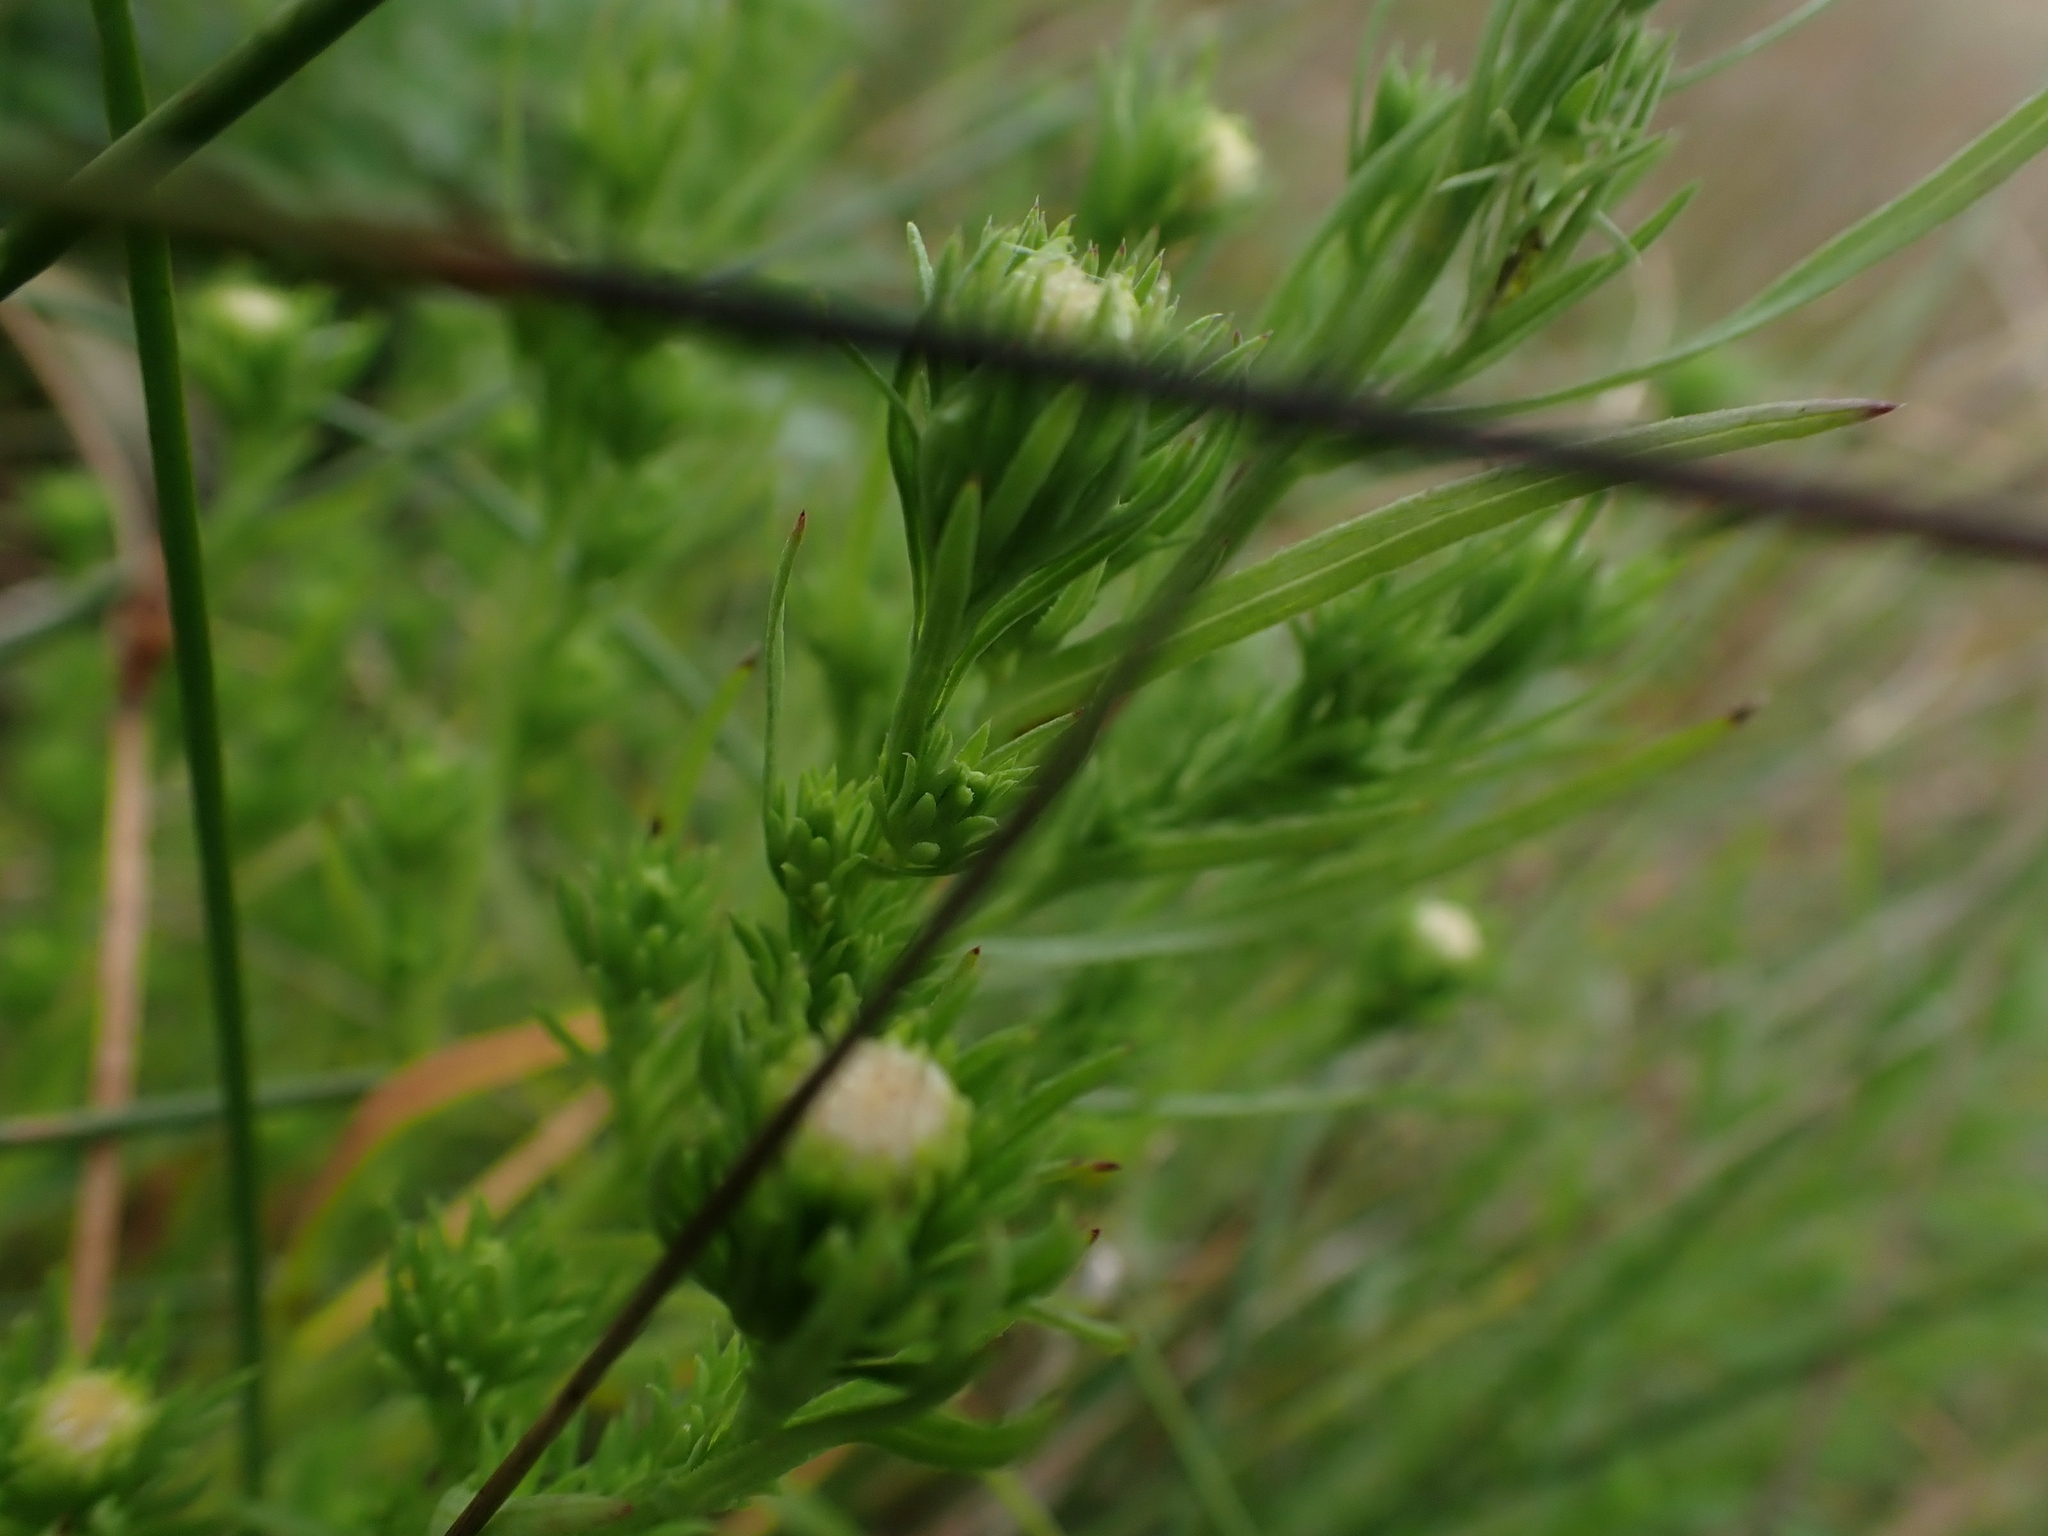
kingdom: Plantae
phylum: Tracheophyta
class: Magnoliopsida
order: Asterales
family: Asteraceae
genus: Symphyotrichum
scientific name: Symphyotrichum ciliatum
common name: Rayless annual aster
